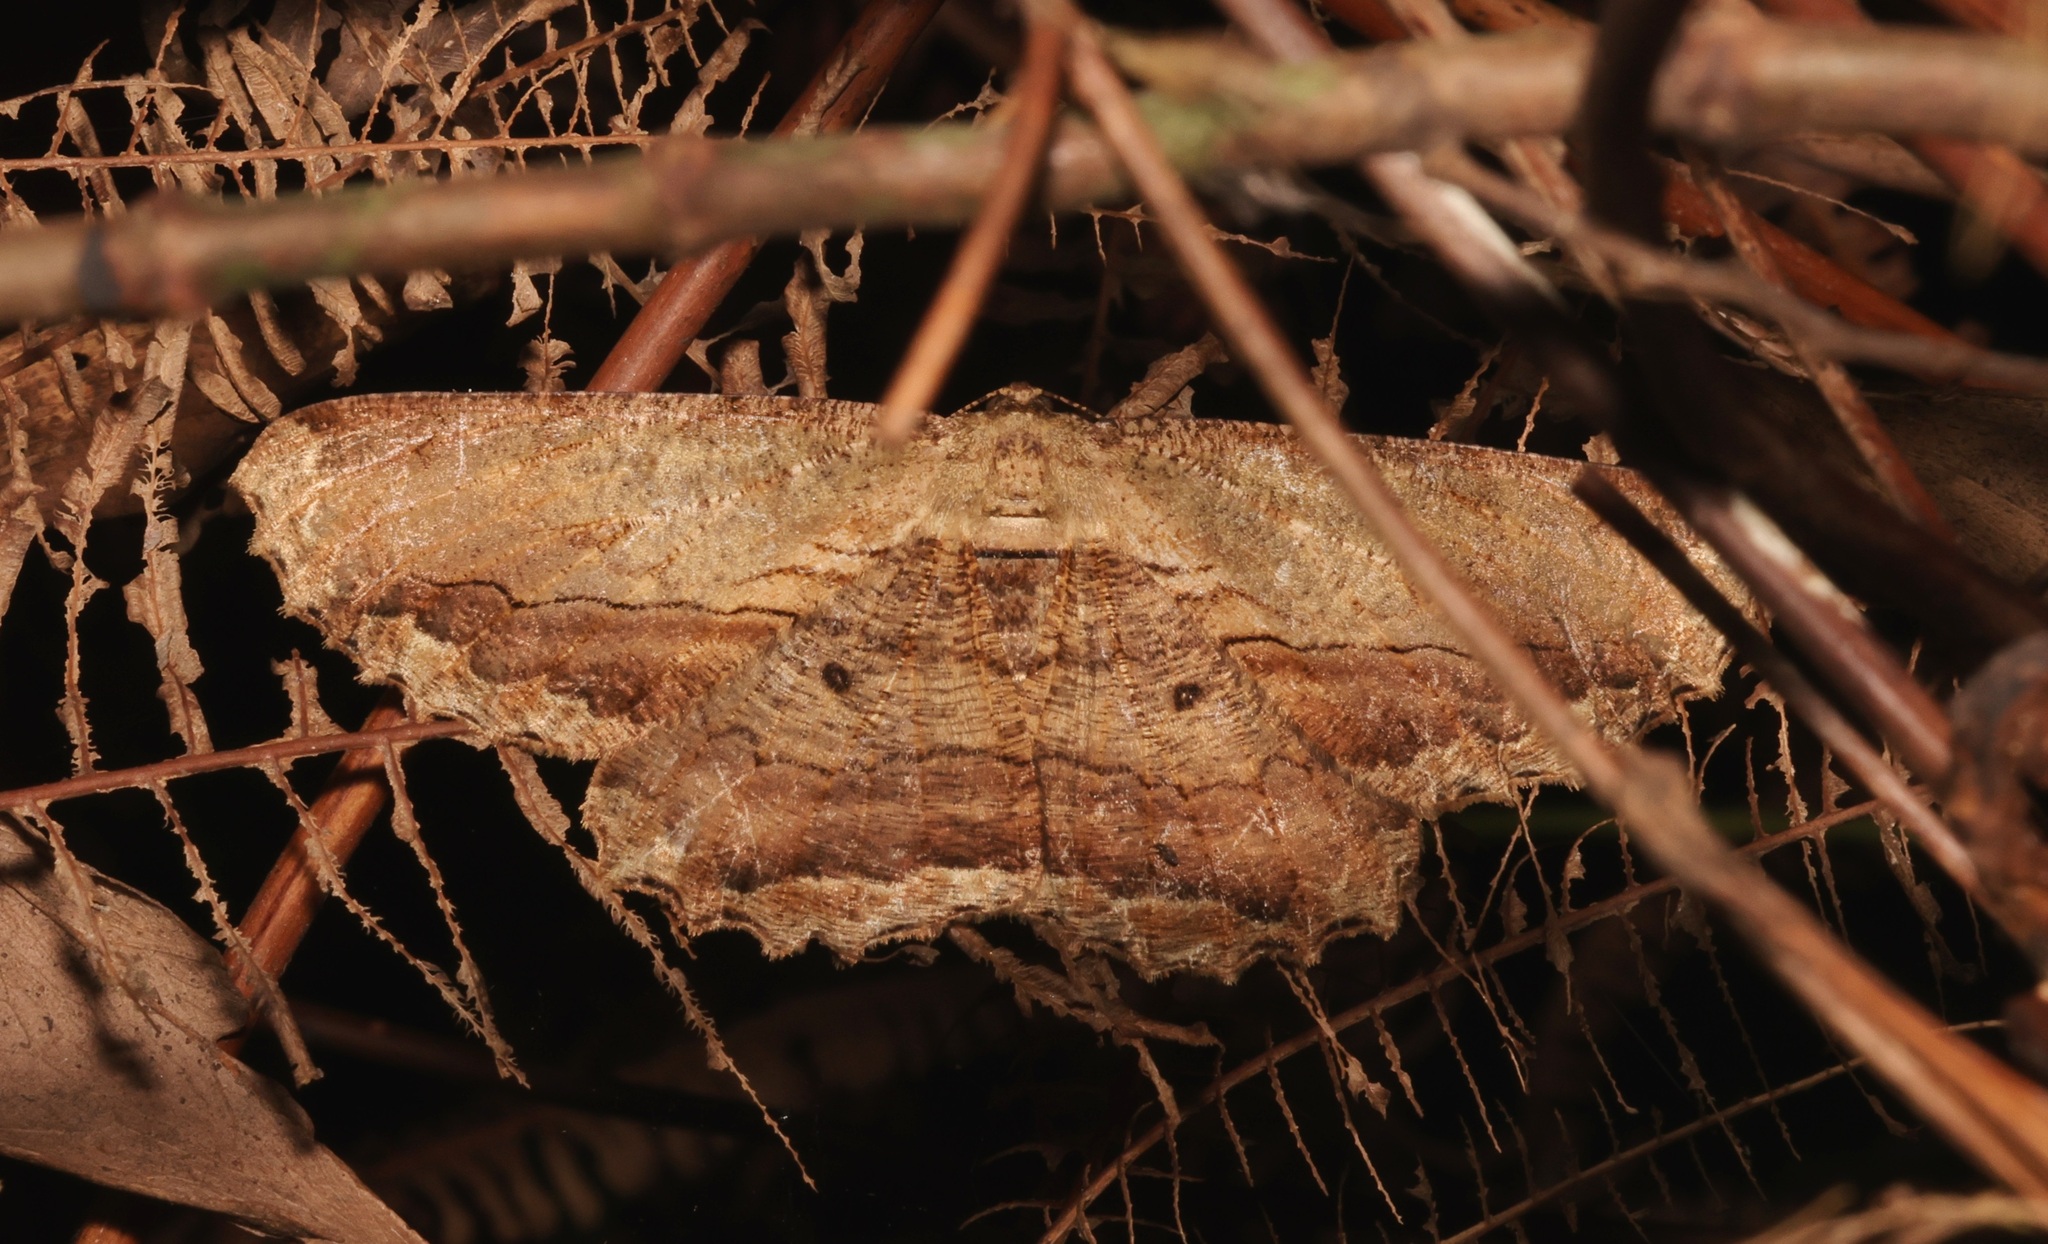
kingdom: Animalia
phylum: Arthropoda
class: Insecta
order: Lepidoptera
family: Geometridae
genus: Chorodna
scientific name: Chorodna strixaria
